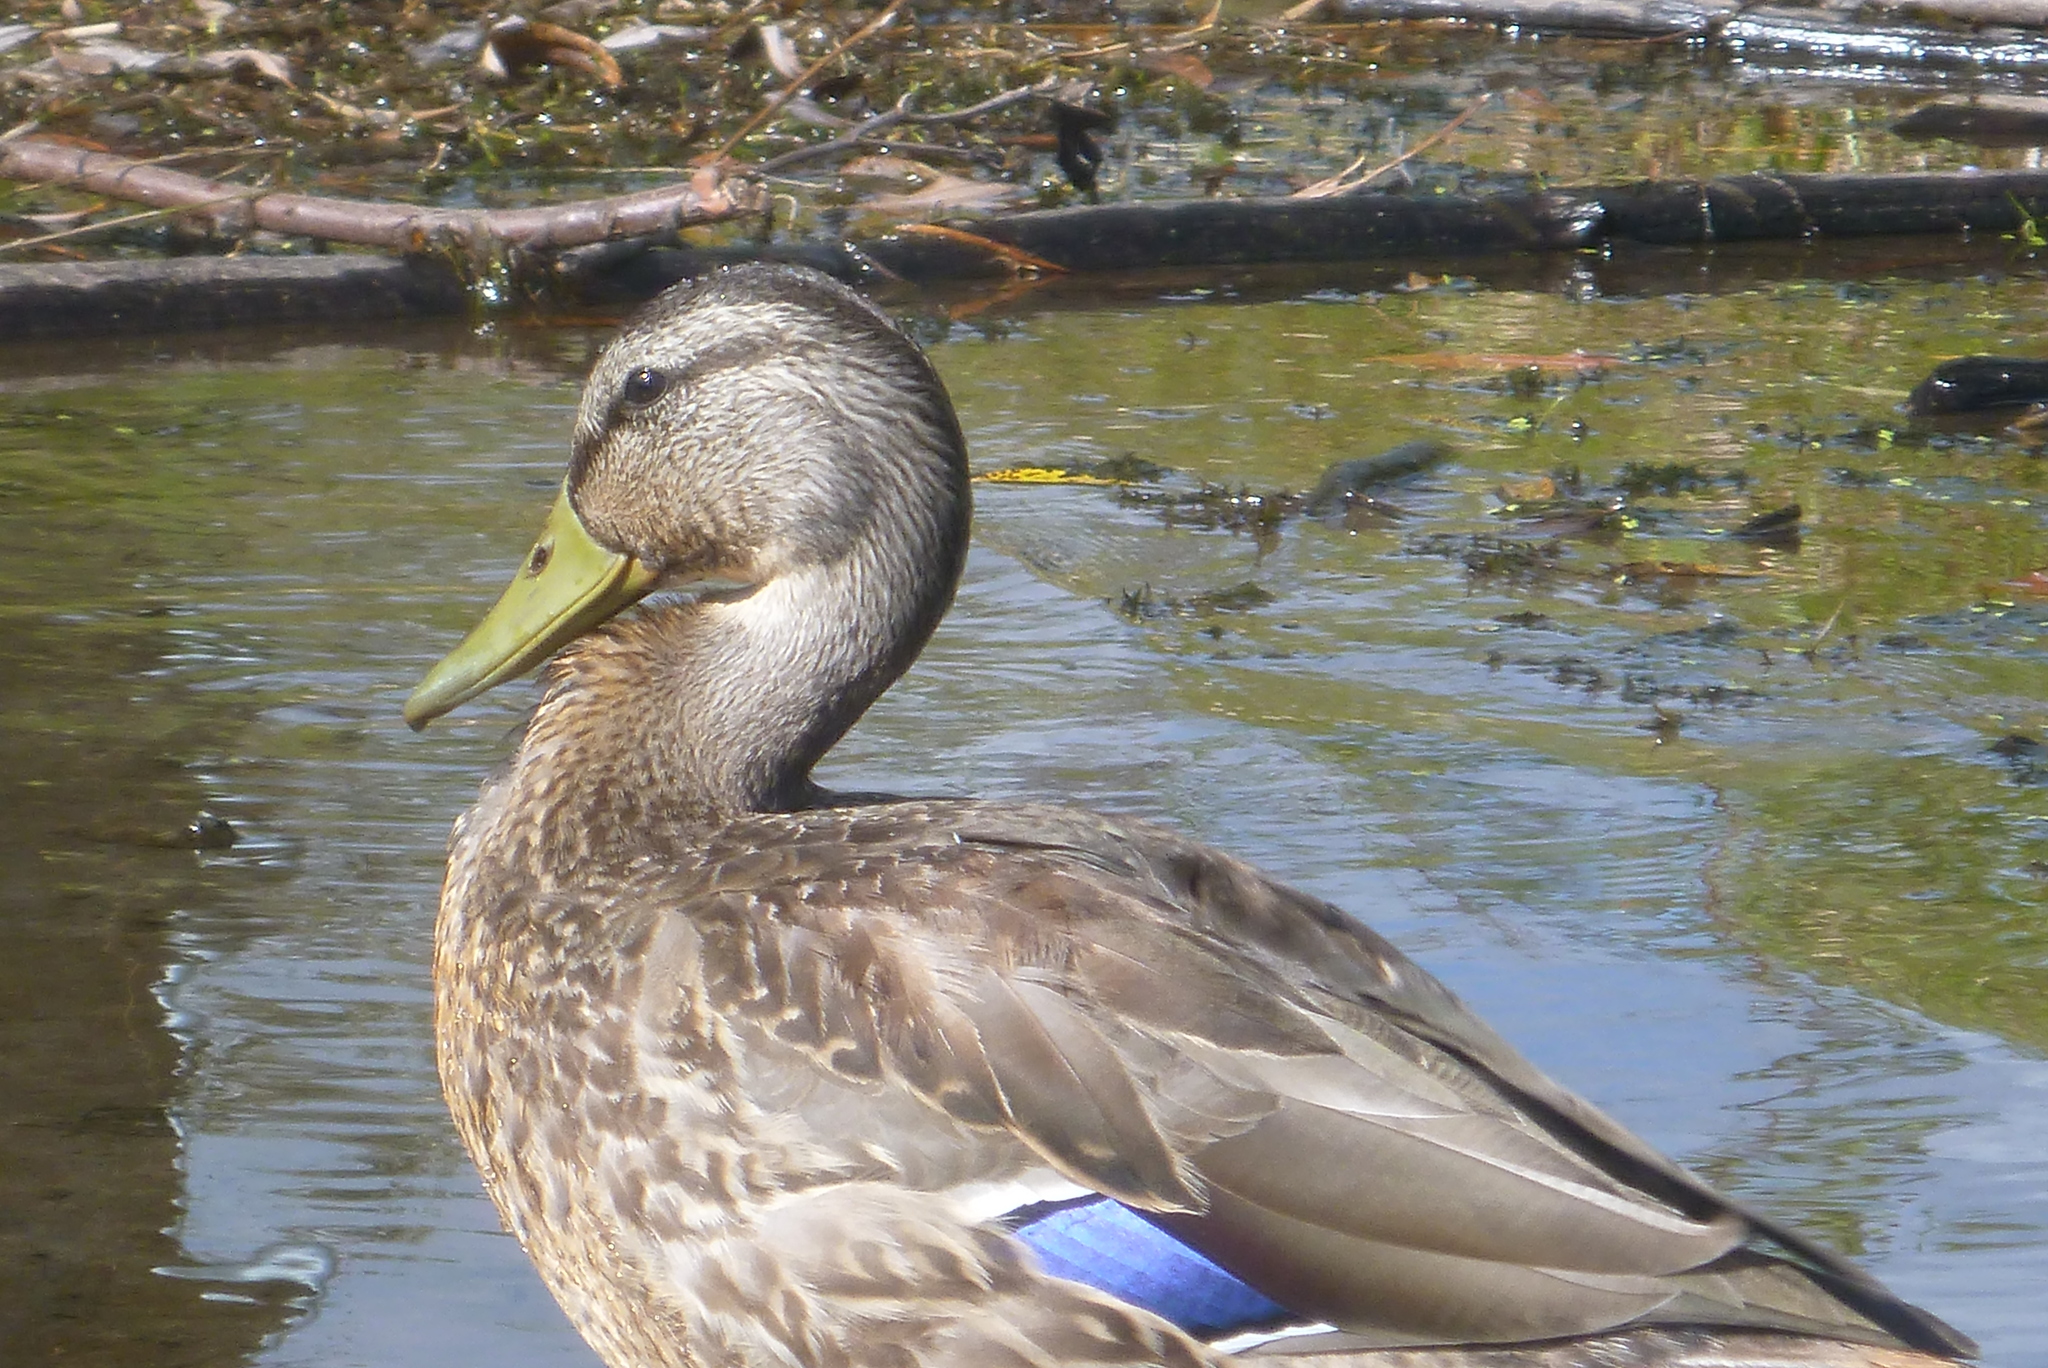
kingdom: Animalia
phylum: Chordata
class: Aves
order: Anseriformes
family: Anatidae
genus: Anas
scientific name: Anas platyrhynchos
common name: Mallard
